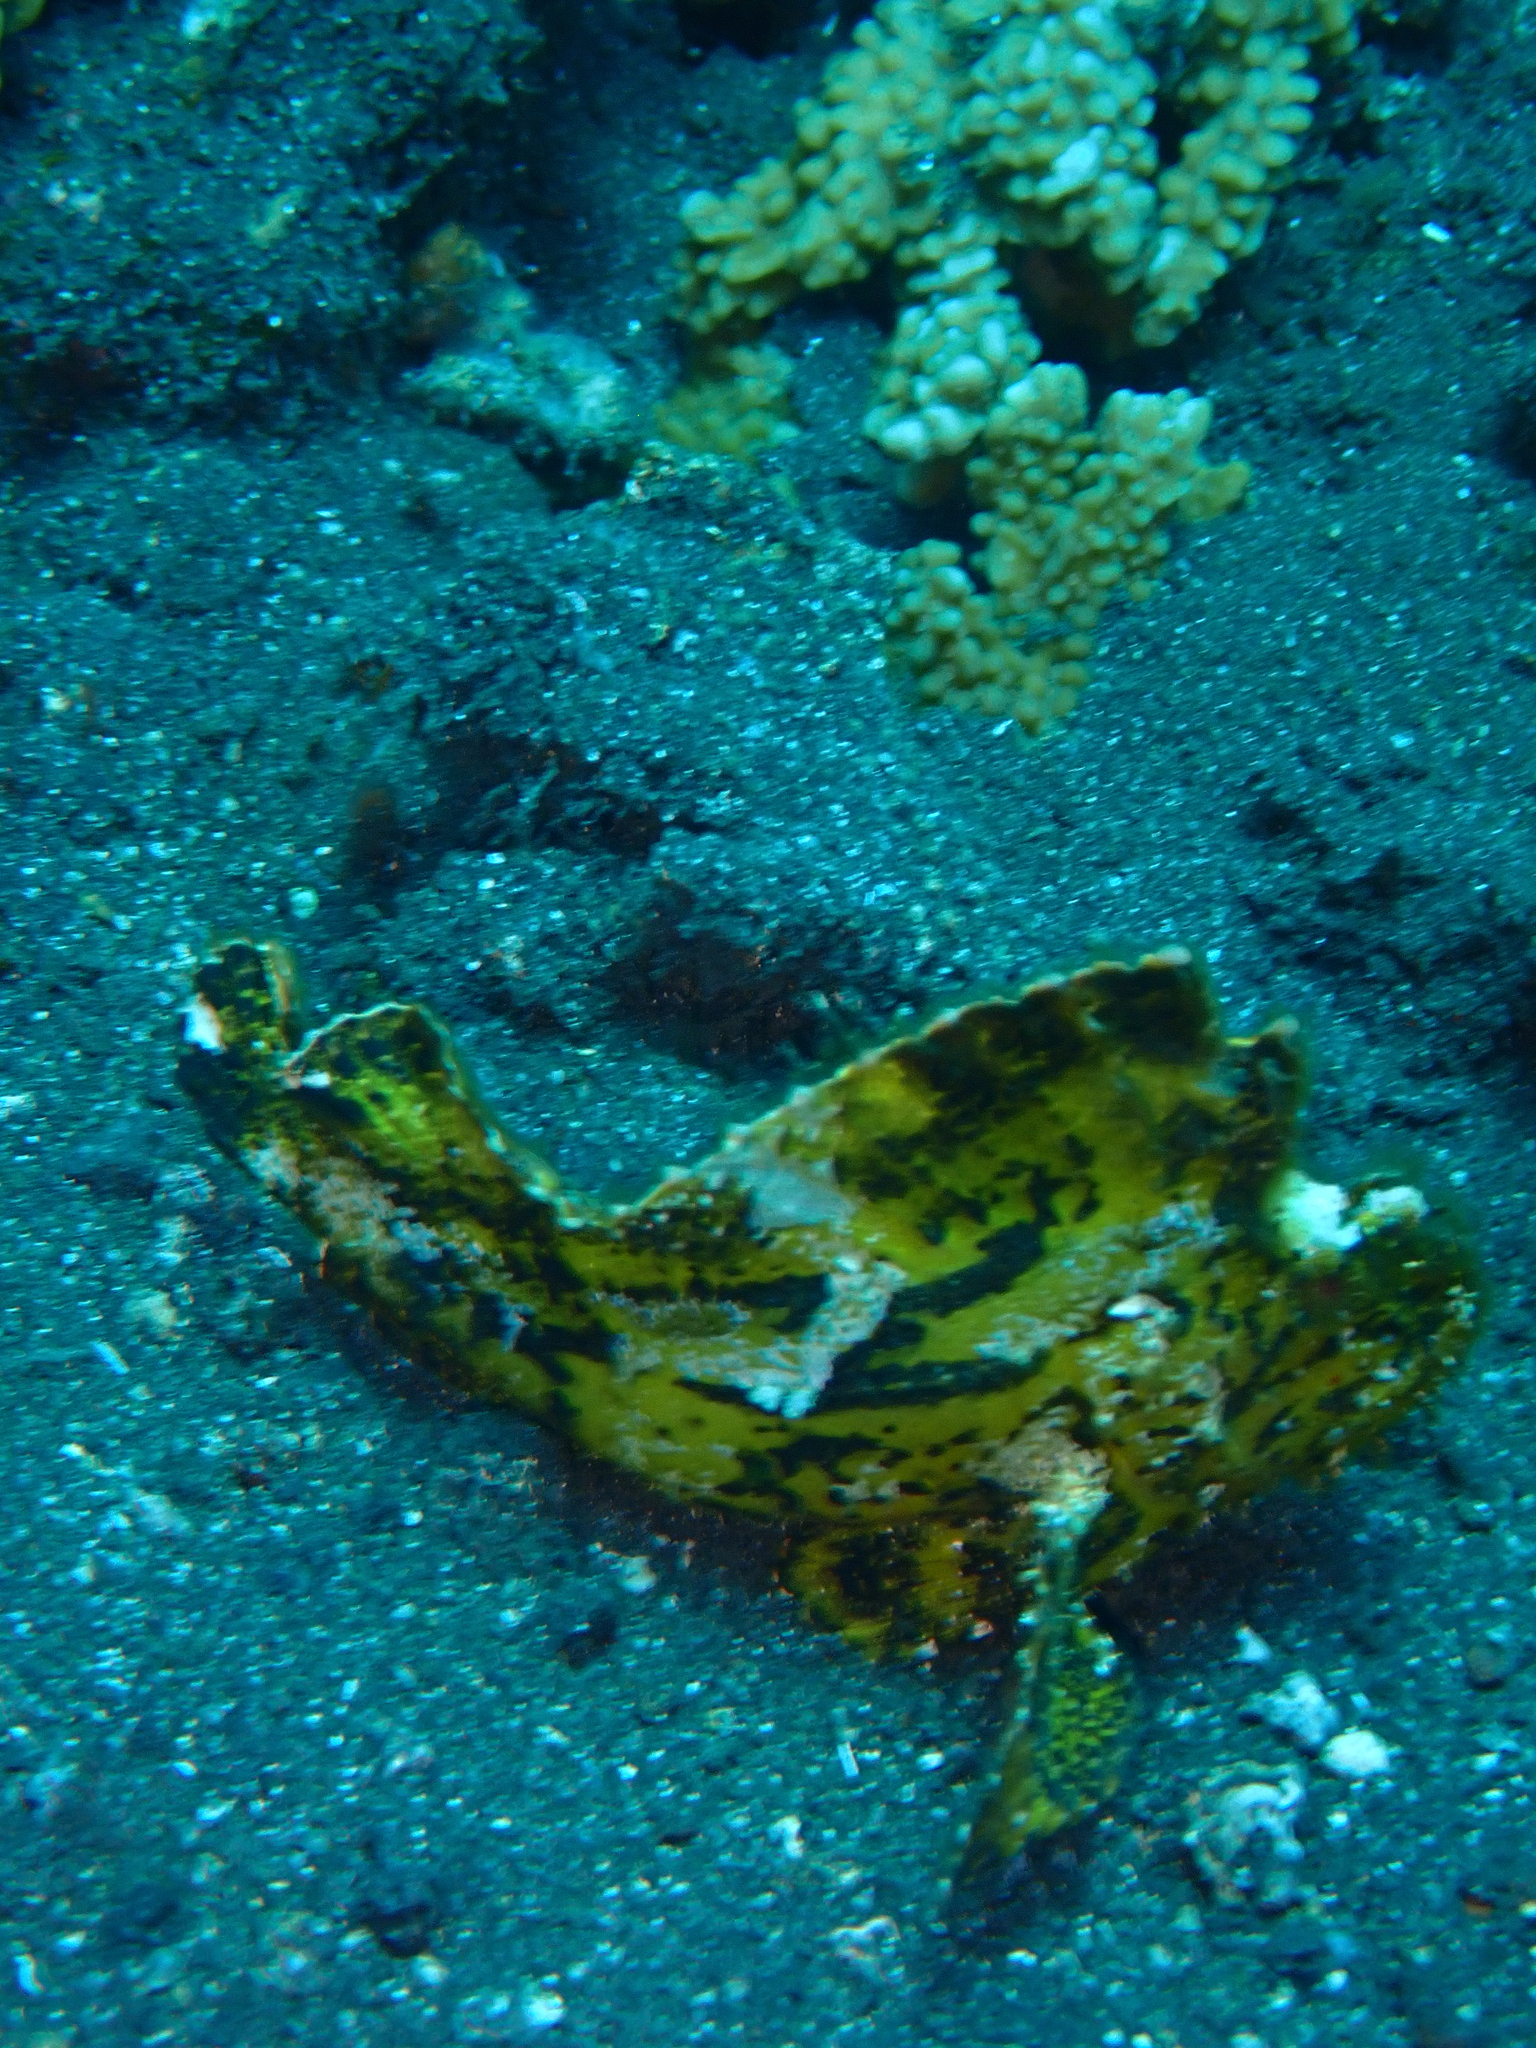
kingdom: Animalia
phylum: Chordata
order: Scorpaeniformes
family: Scorpaenidae
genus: Taenianotus
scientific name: Taenianotus triacanthus
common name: Leaf scorpionfish
